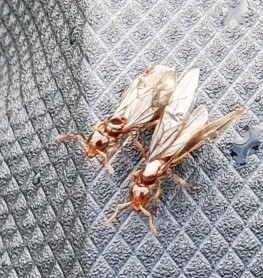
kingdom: Animalia
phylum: Arthropoda
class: Insecta
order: Hymenoptera
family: Formicidae
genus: Lasius
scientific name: Lasius claviger
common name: Common citronella ant
